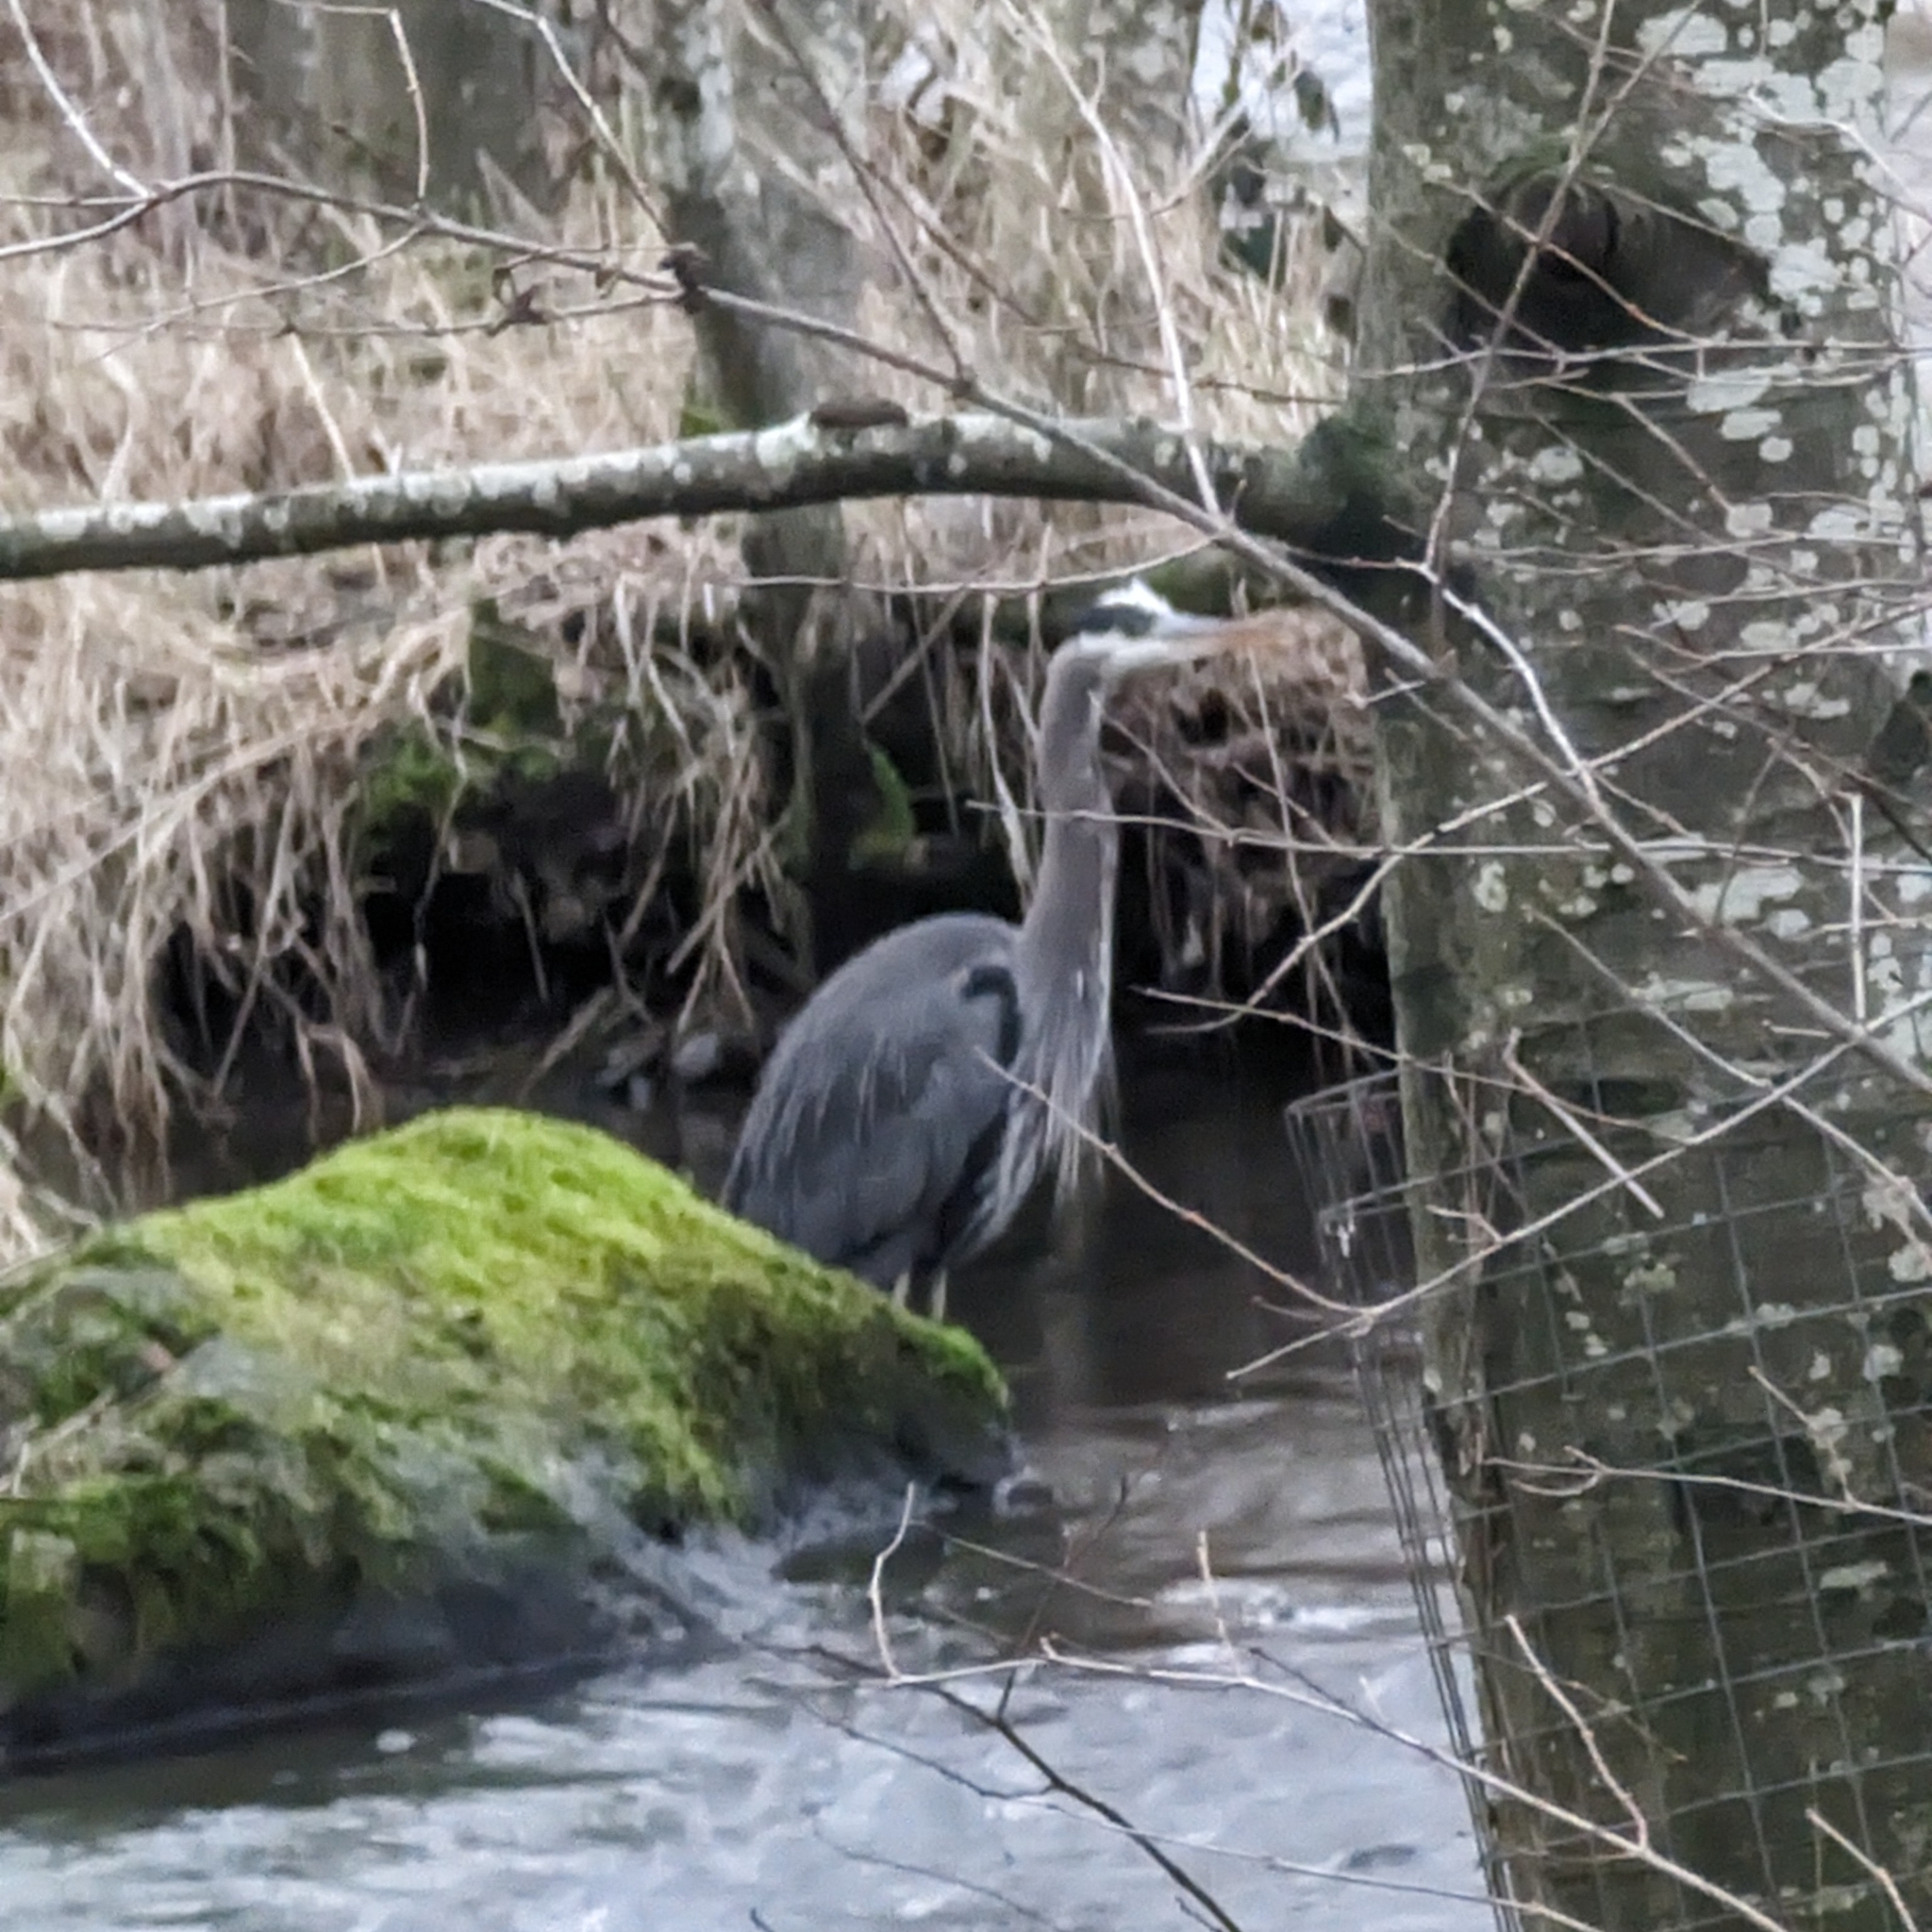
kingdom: Animalia
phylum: Chordata
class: Aves
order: Pelecaniformes
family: Ardeidae
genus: Ardea
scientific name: Ardea herodias
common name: Great blue heron
